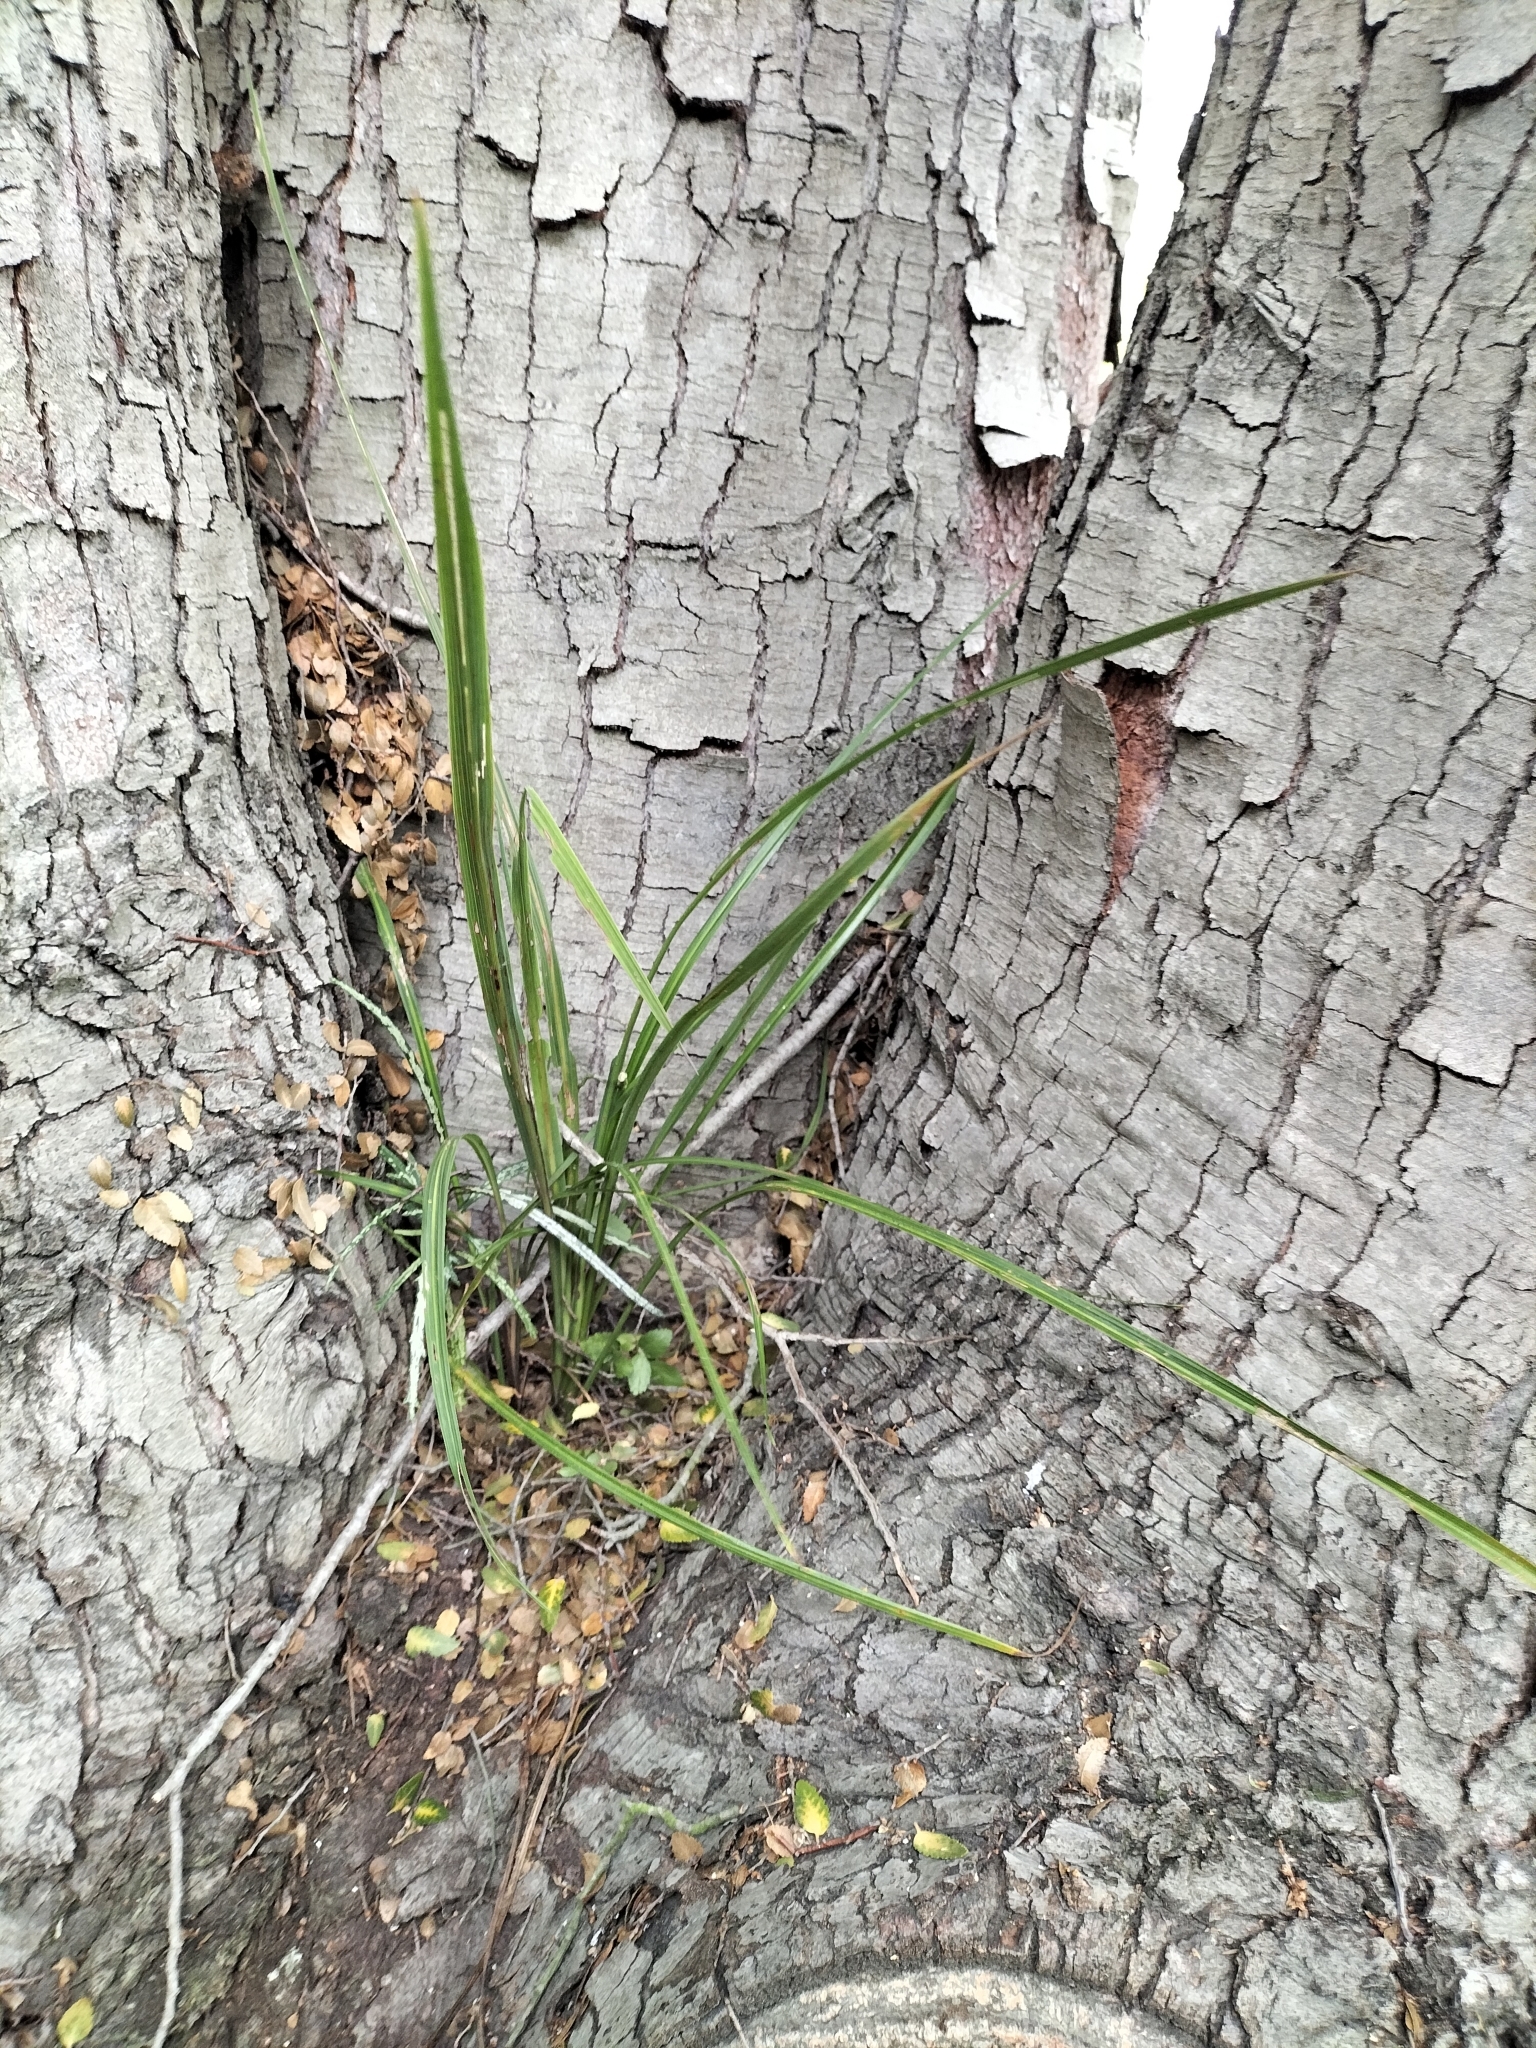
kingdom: Plantae
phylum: Tracheophyta
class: Liliopsida
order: Asparagales
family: Asparagaceae
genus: Cordyline
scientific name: Cordyline australis
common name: Cabbage-palm
